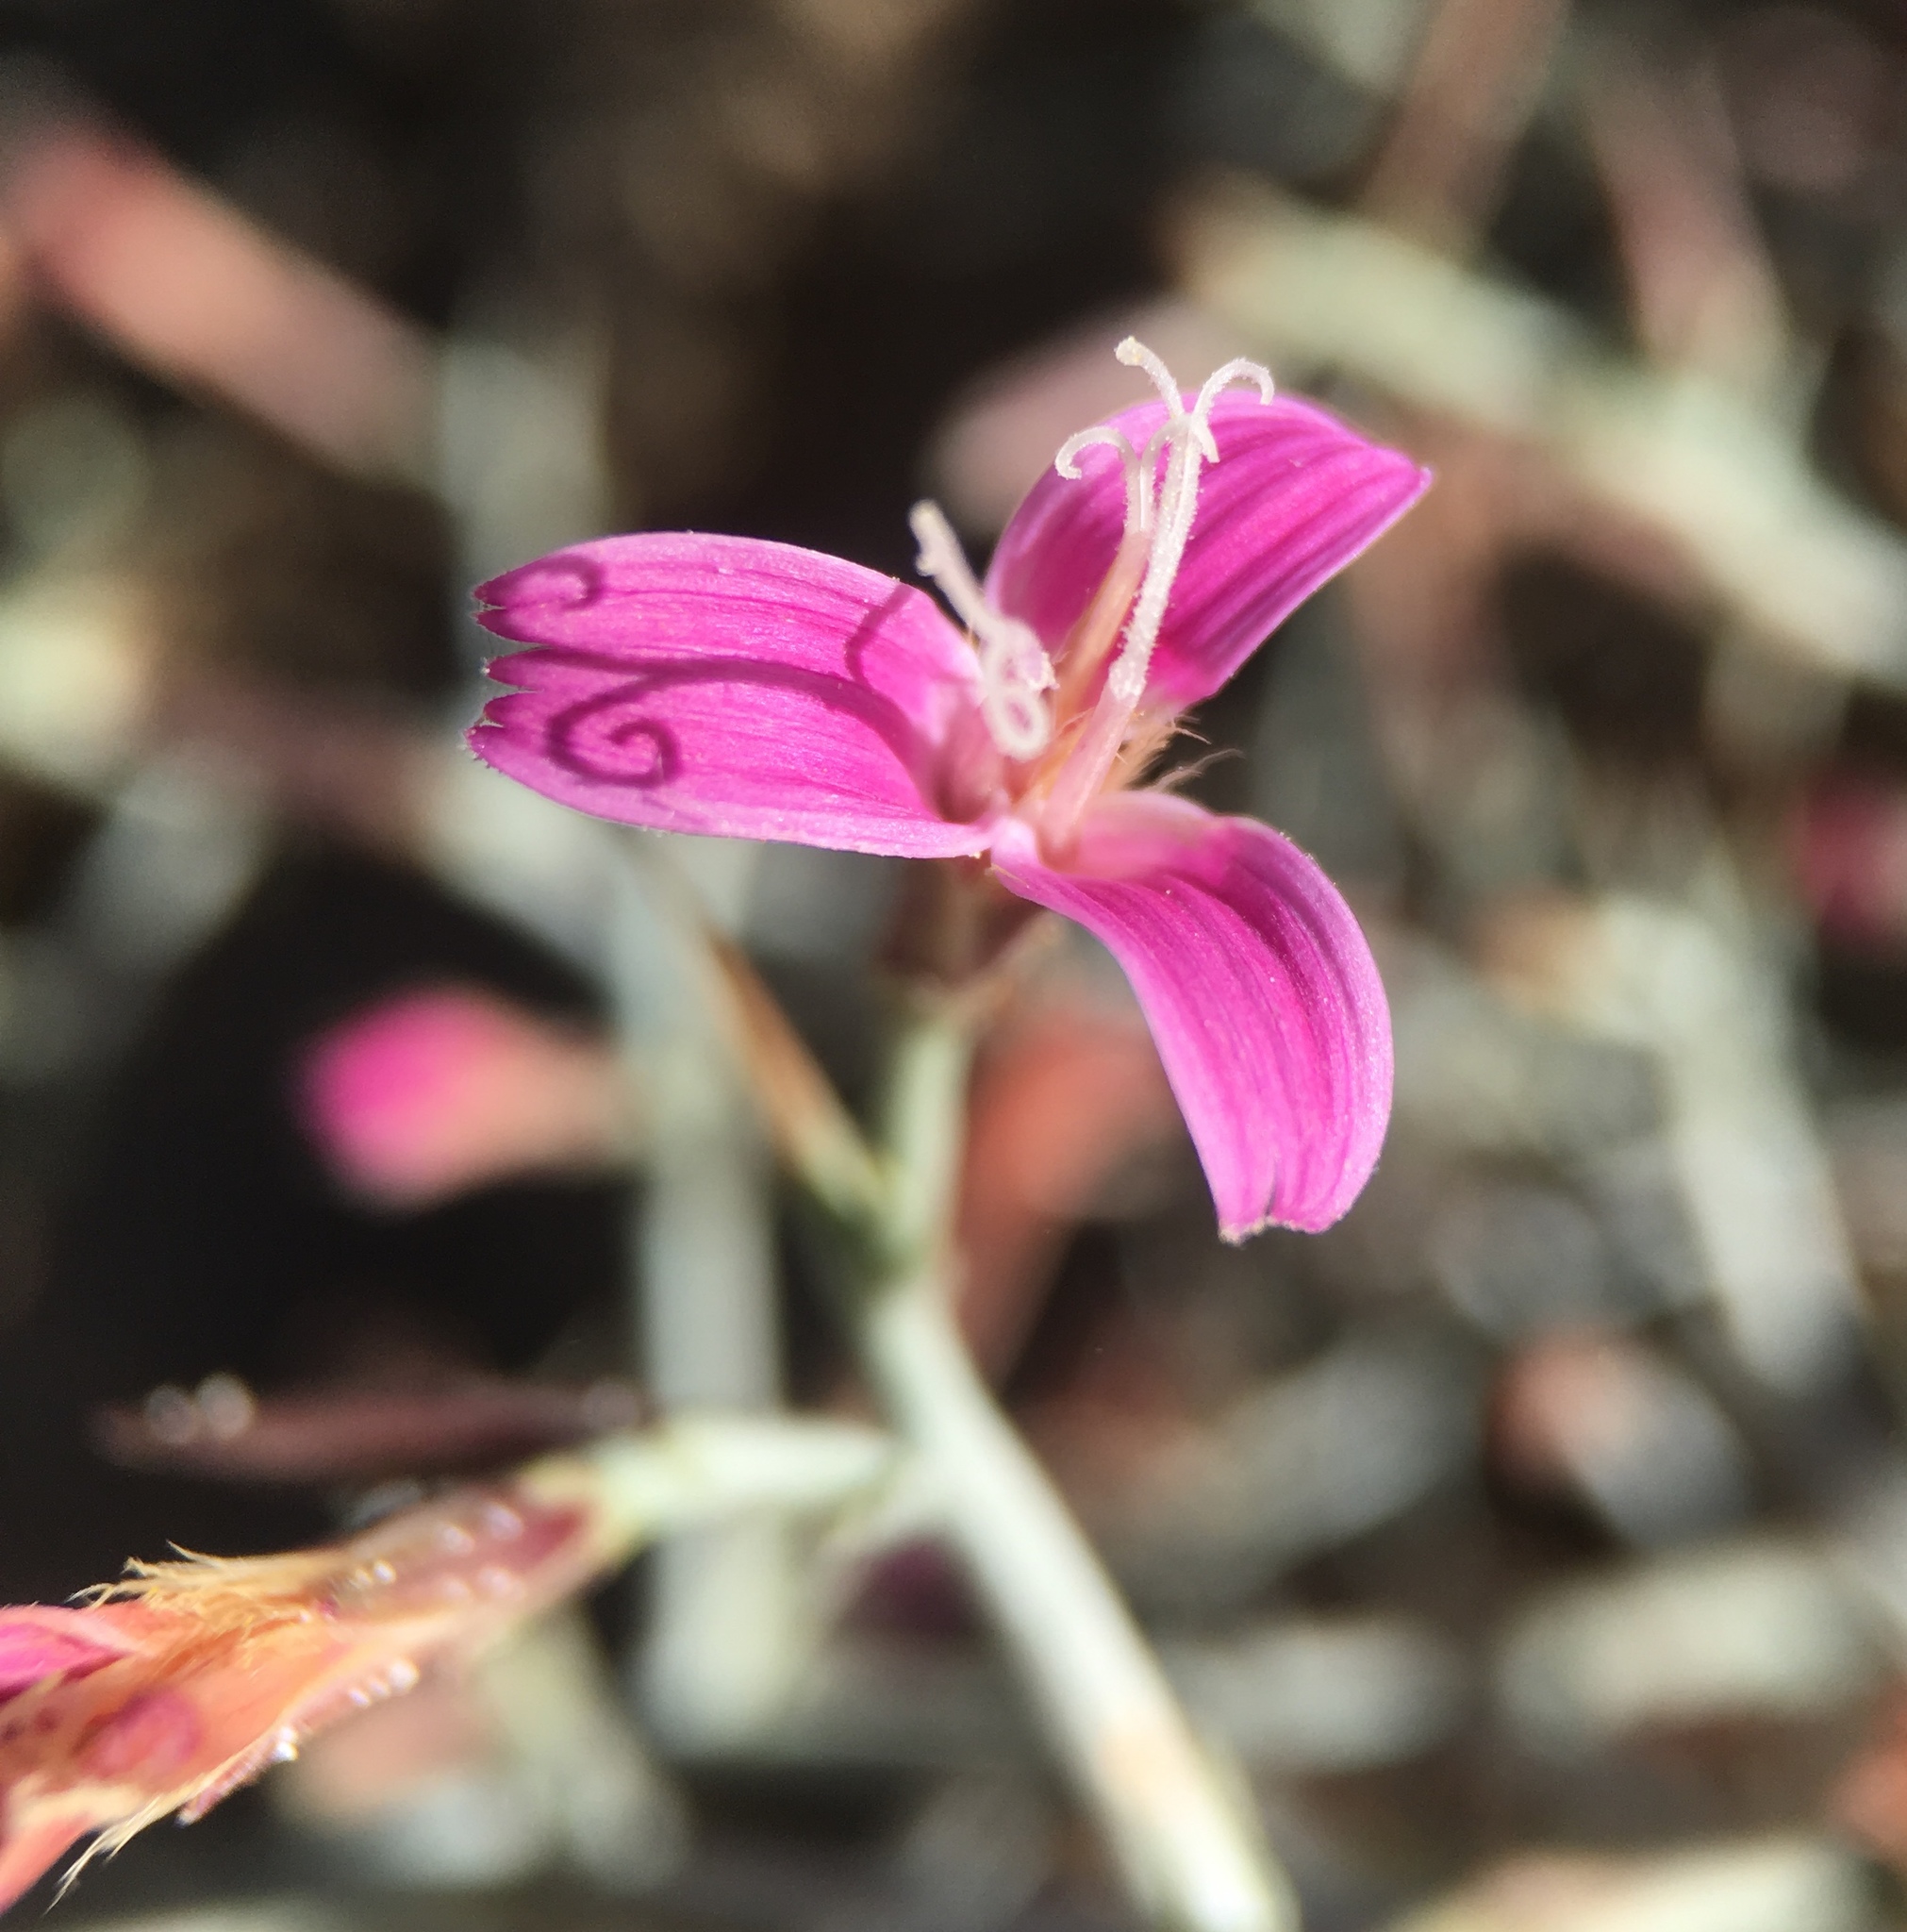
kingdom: Plantae
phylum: Tracheophyta
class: Magnoliopsida
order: Asterales
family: Asteraceae
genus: Pleiacanthus
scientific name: Pleiacanthus spinosus
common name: Thorny skeleton-weed
